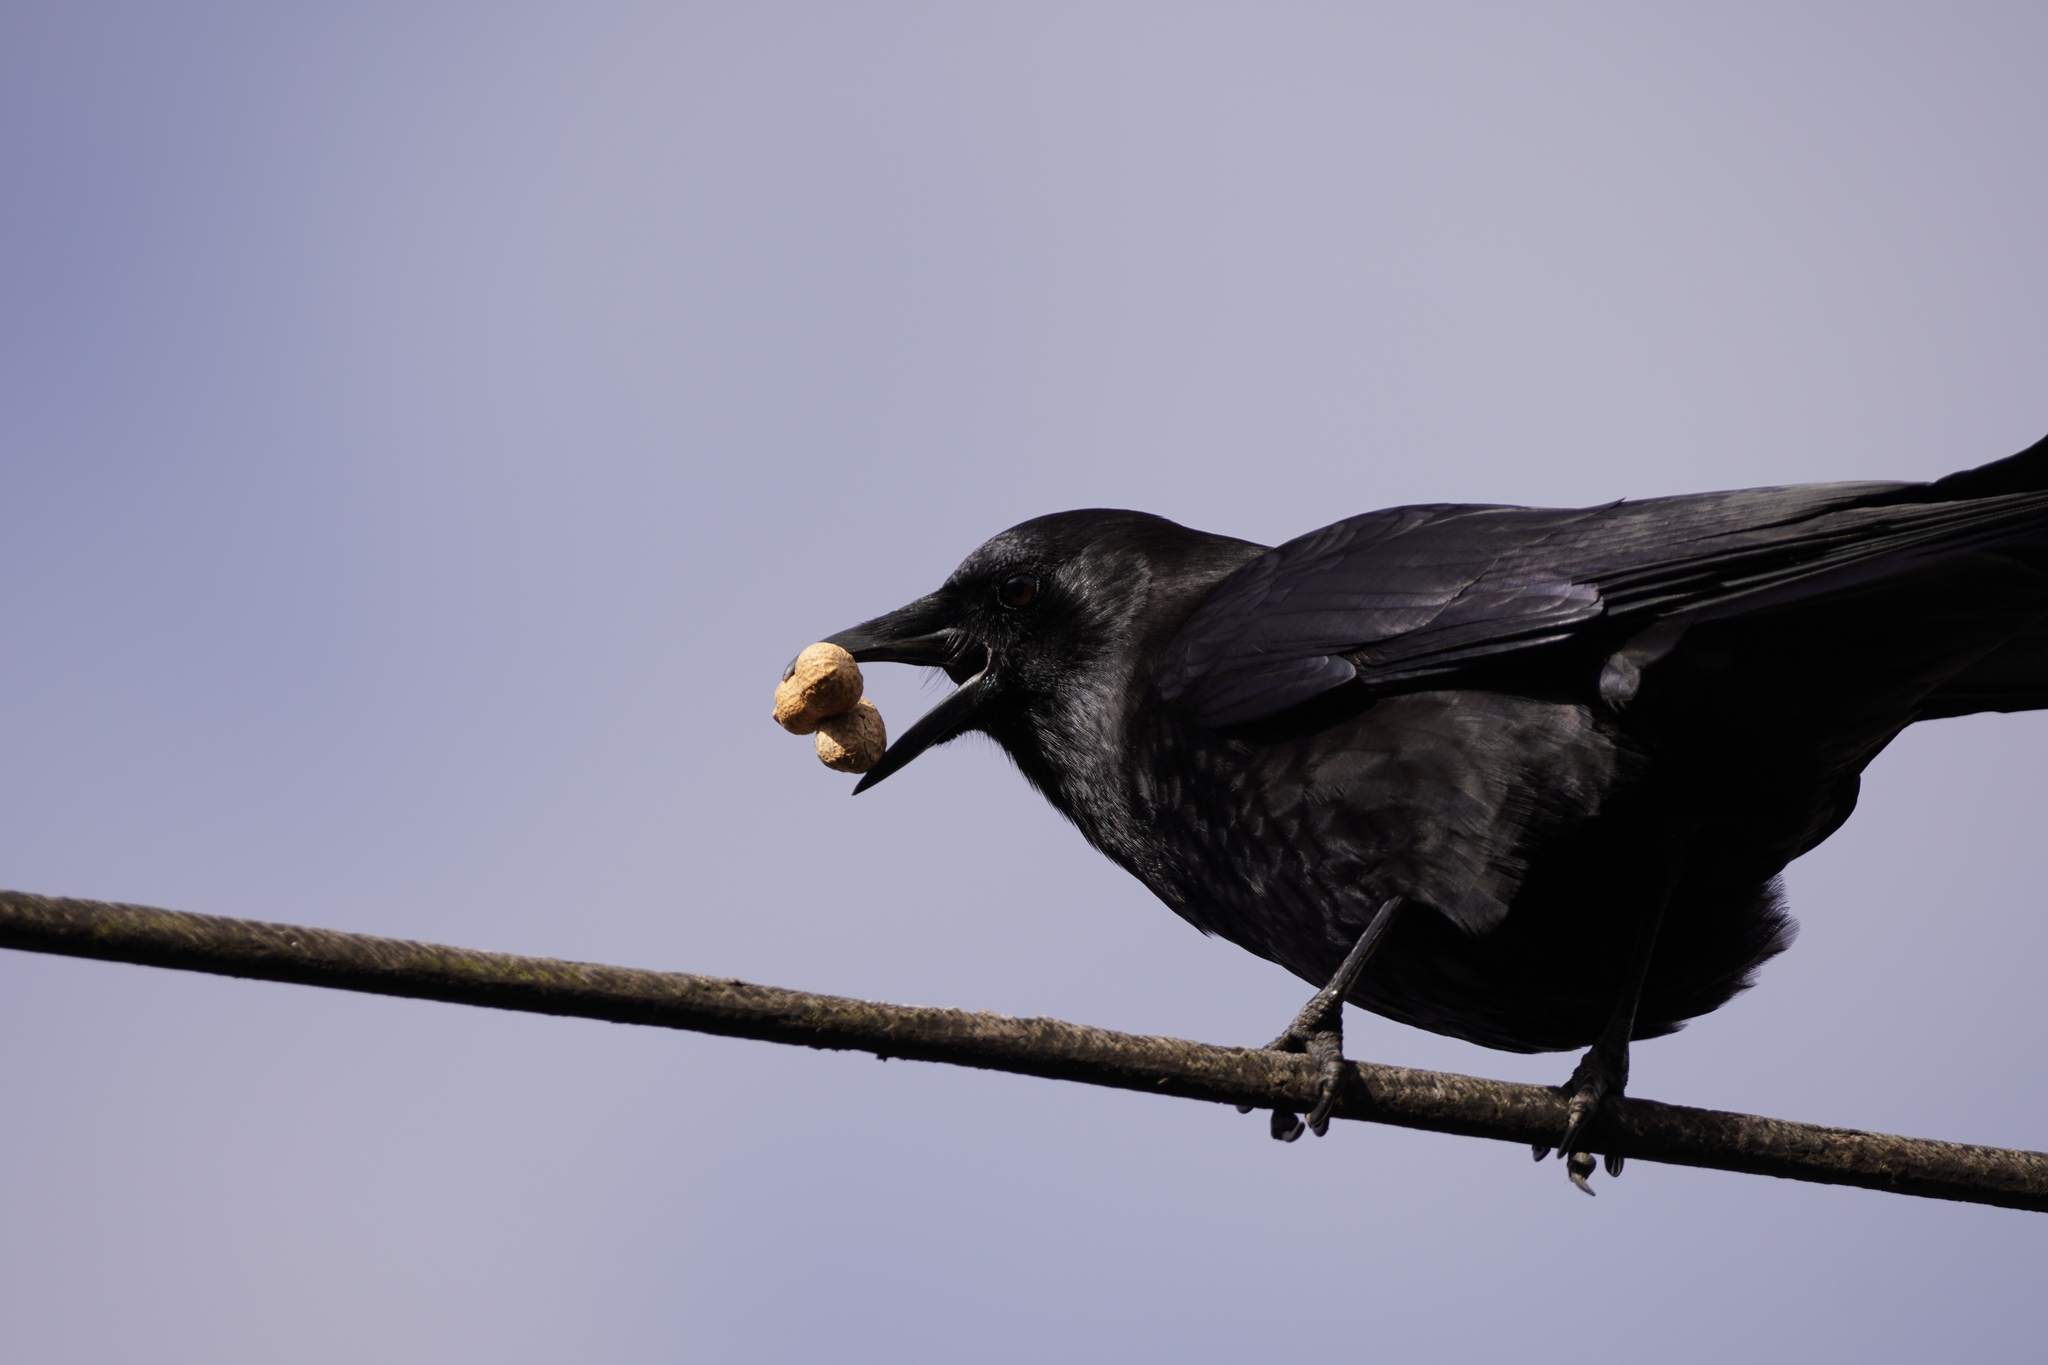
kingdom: Animalia
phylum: Chordata
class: Aves
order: Passeriformes
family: Corvidae
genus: Corvus
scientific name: Corvus brachyrhynchos
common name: American crow
